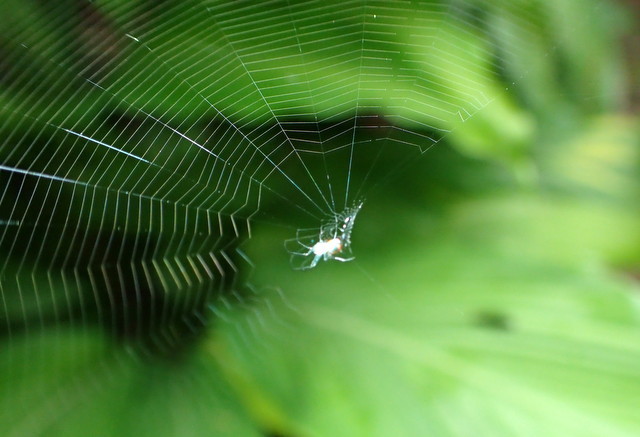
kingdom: Animalia
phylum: Arthropoda
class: Arachnida
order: Araneae
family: Tetragnathidae
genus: Leucauge
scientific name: Leucauge argyrobapta
